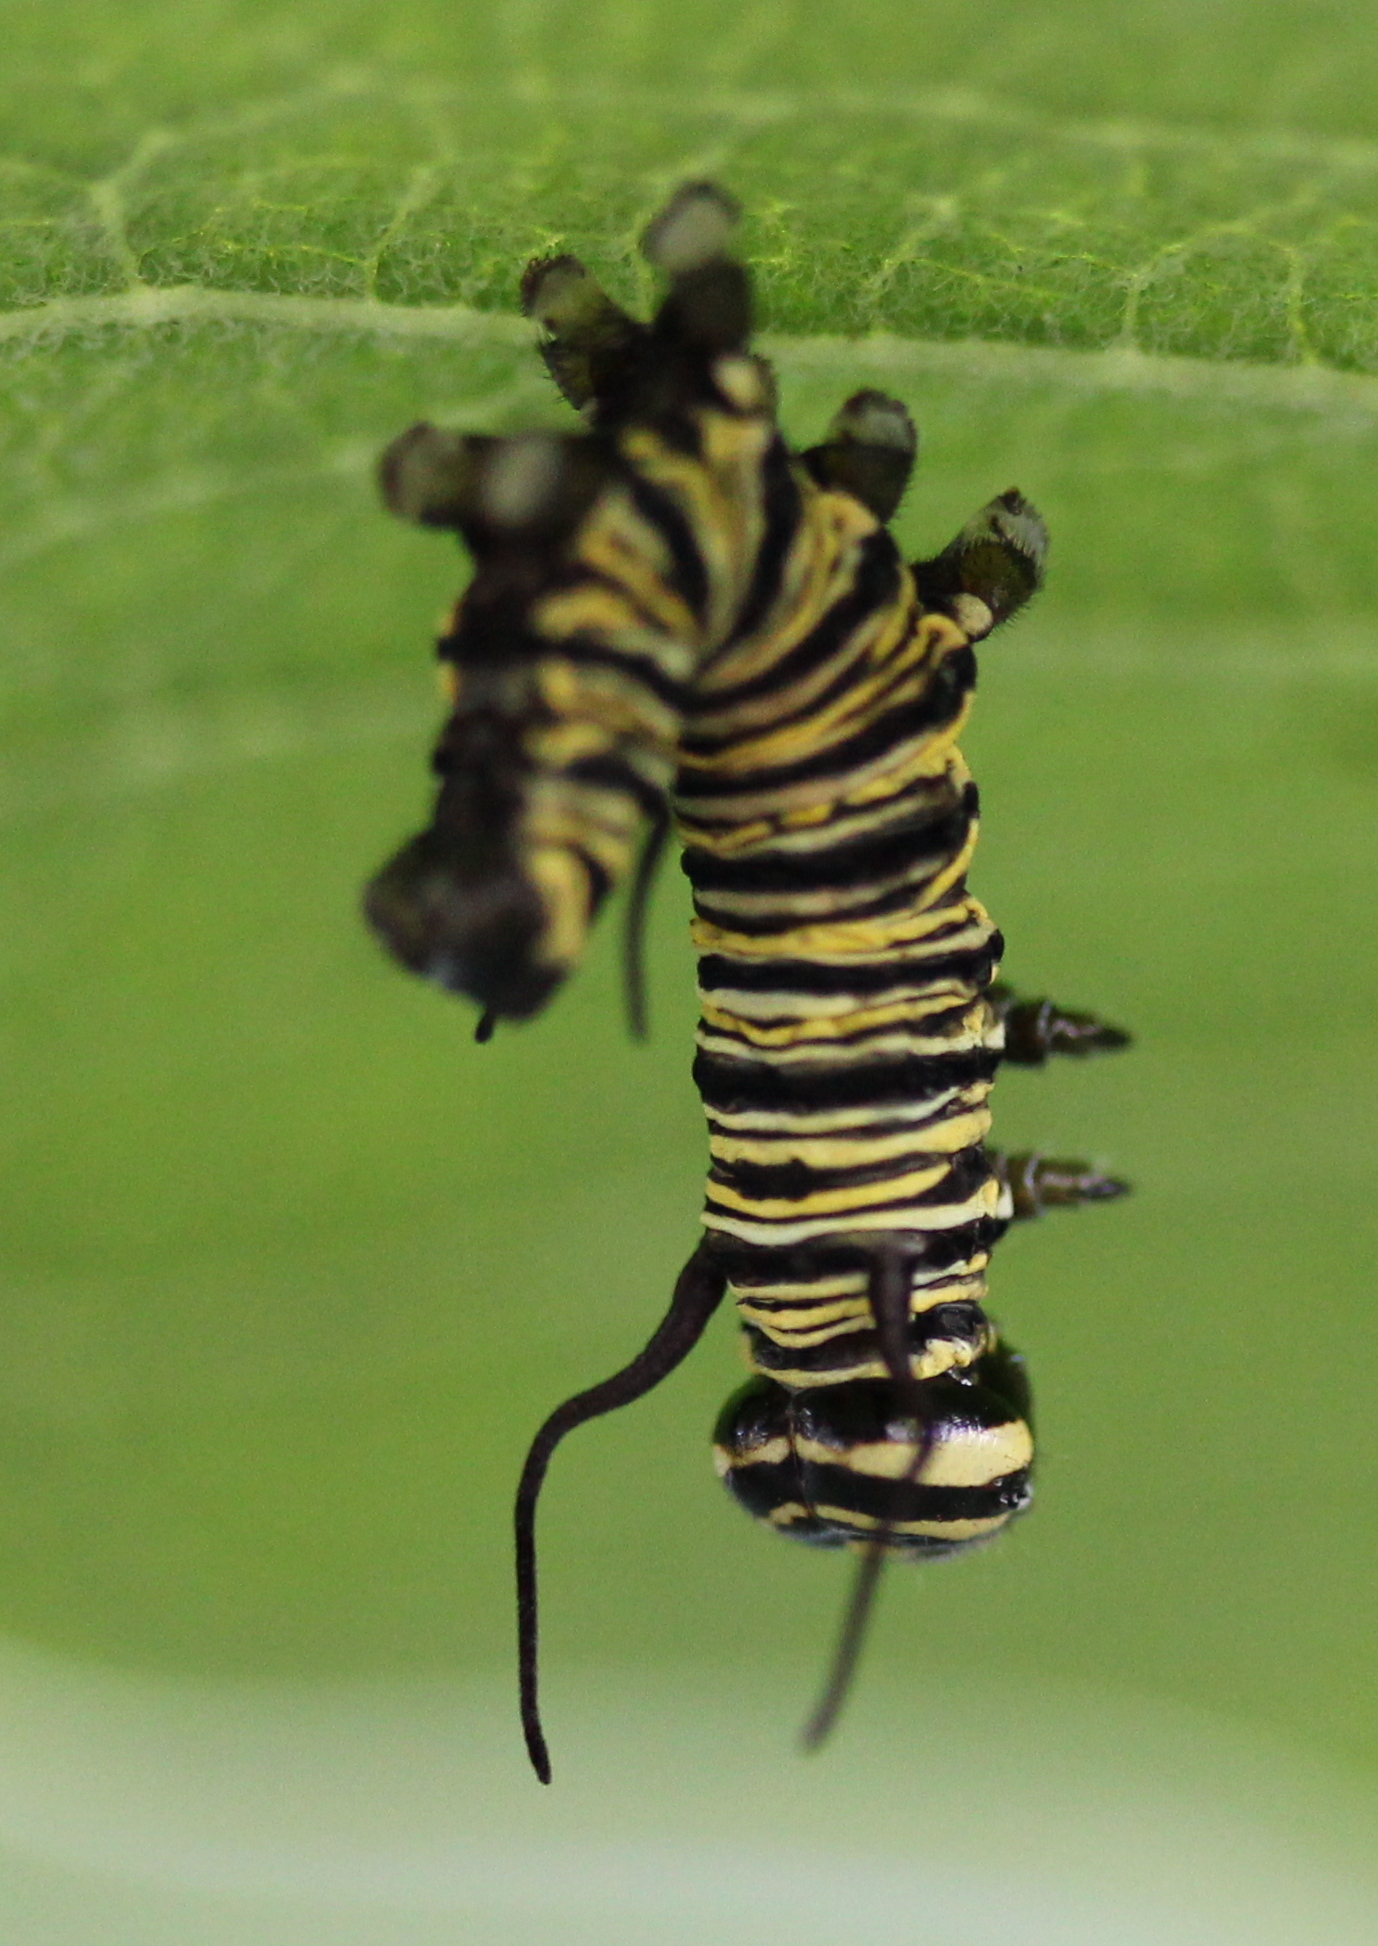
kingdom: Animalia
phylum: Arthropoda
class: Insecta
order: Lepidoptera
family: Nymphalidae
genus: Danaus
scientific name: Danaus plexippus
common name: Monarch
